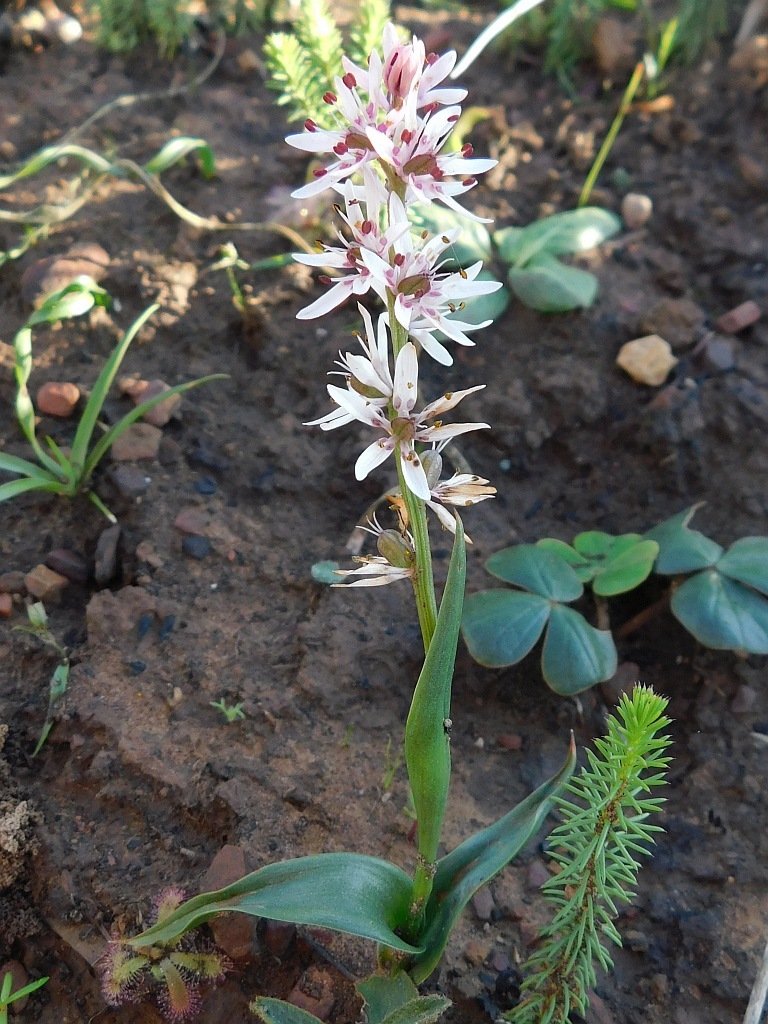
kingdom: Plantae
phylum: Tracheophyta
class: Liliopsida
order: Liliales
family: Colchicaceae
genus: Wurmbea
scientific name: Wurmbea punctata
